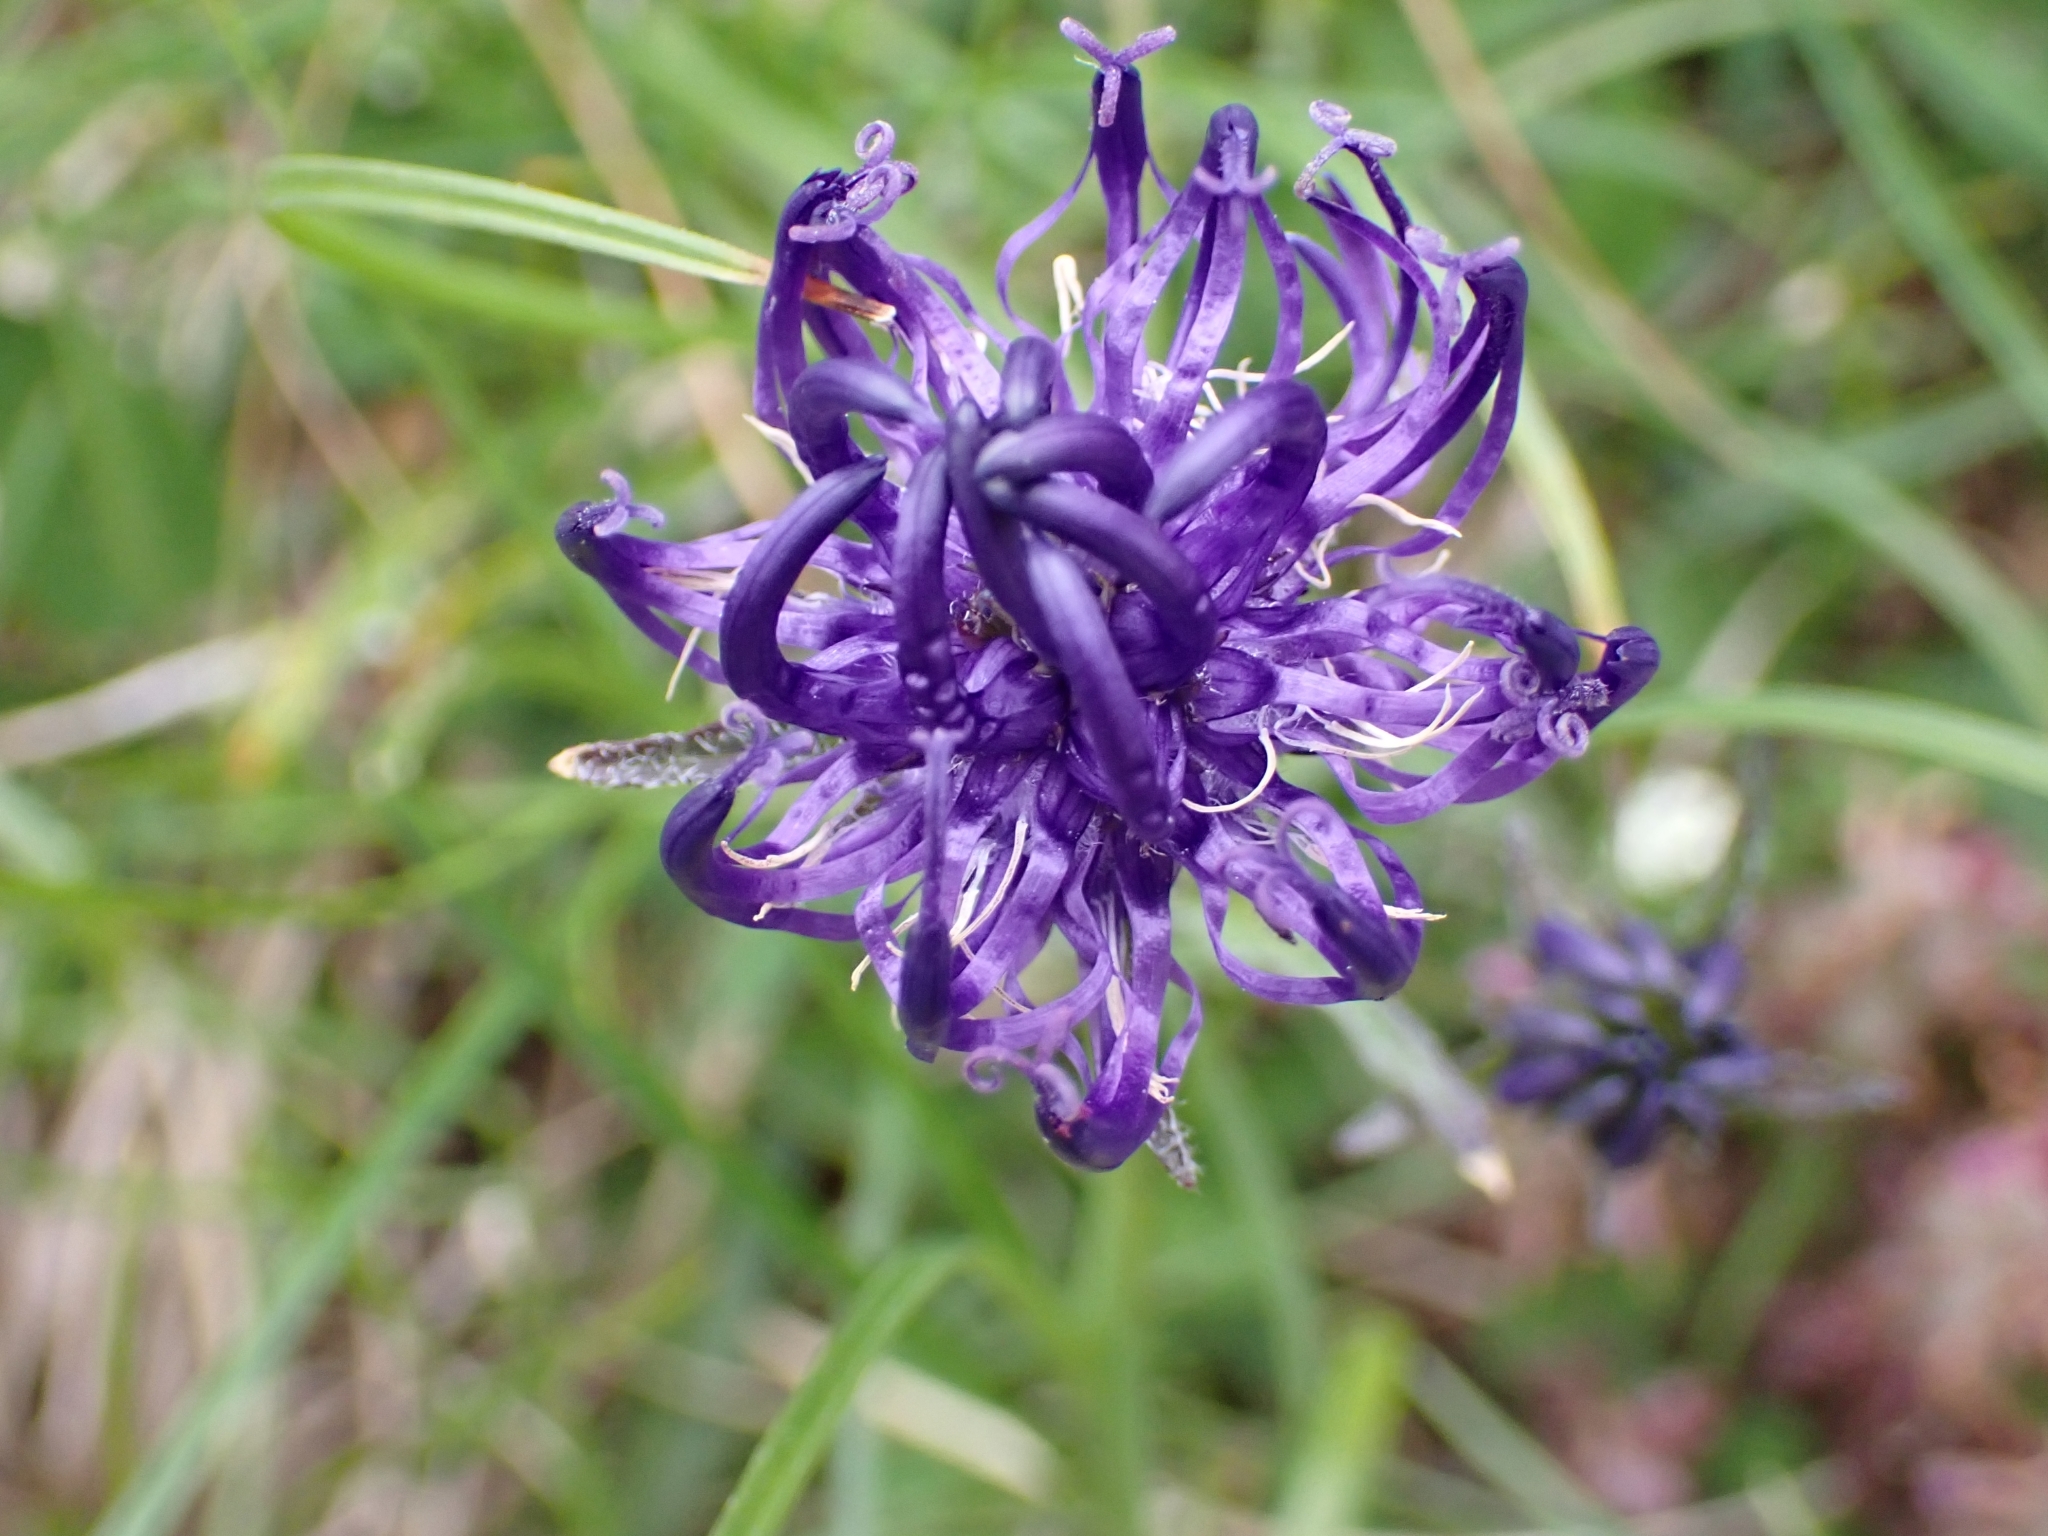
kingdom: Plantae
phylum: Tracheophyta
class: Magnoliopsida
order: Asterales
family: Campanulaceae
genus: Phyteuma
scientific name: Phyteuma orbiculare
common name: Round-headed rampion
